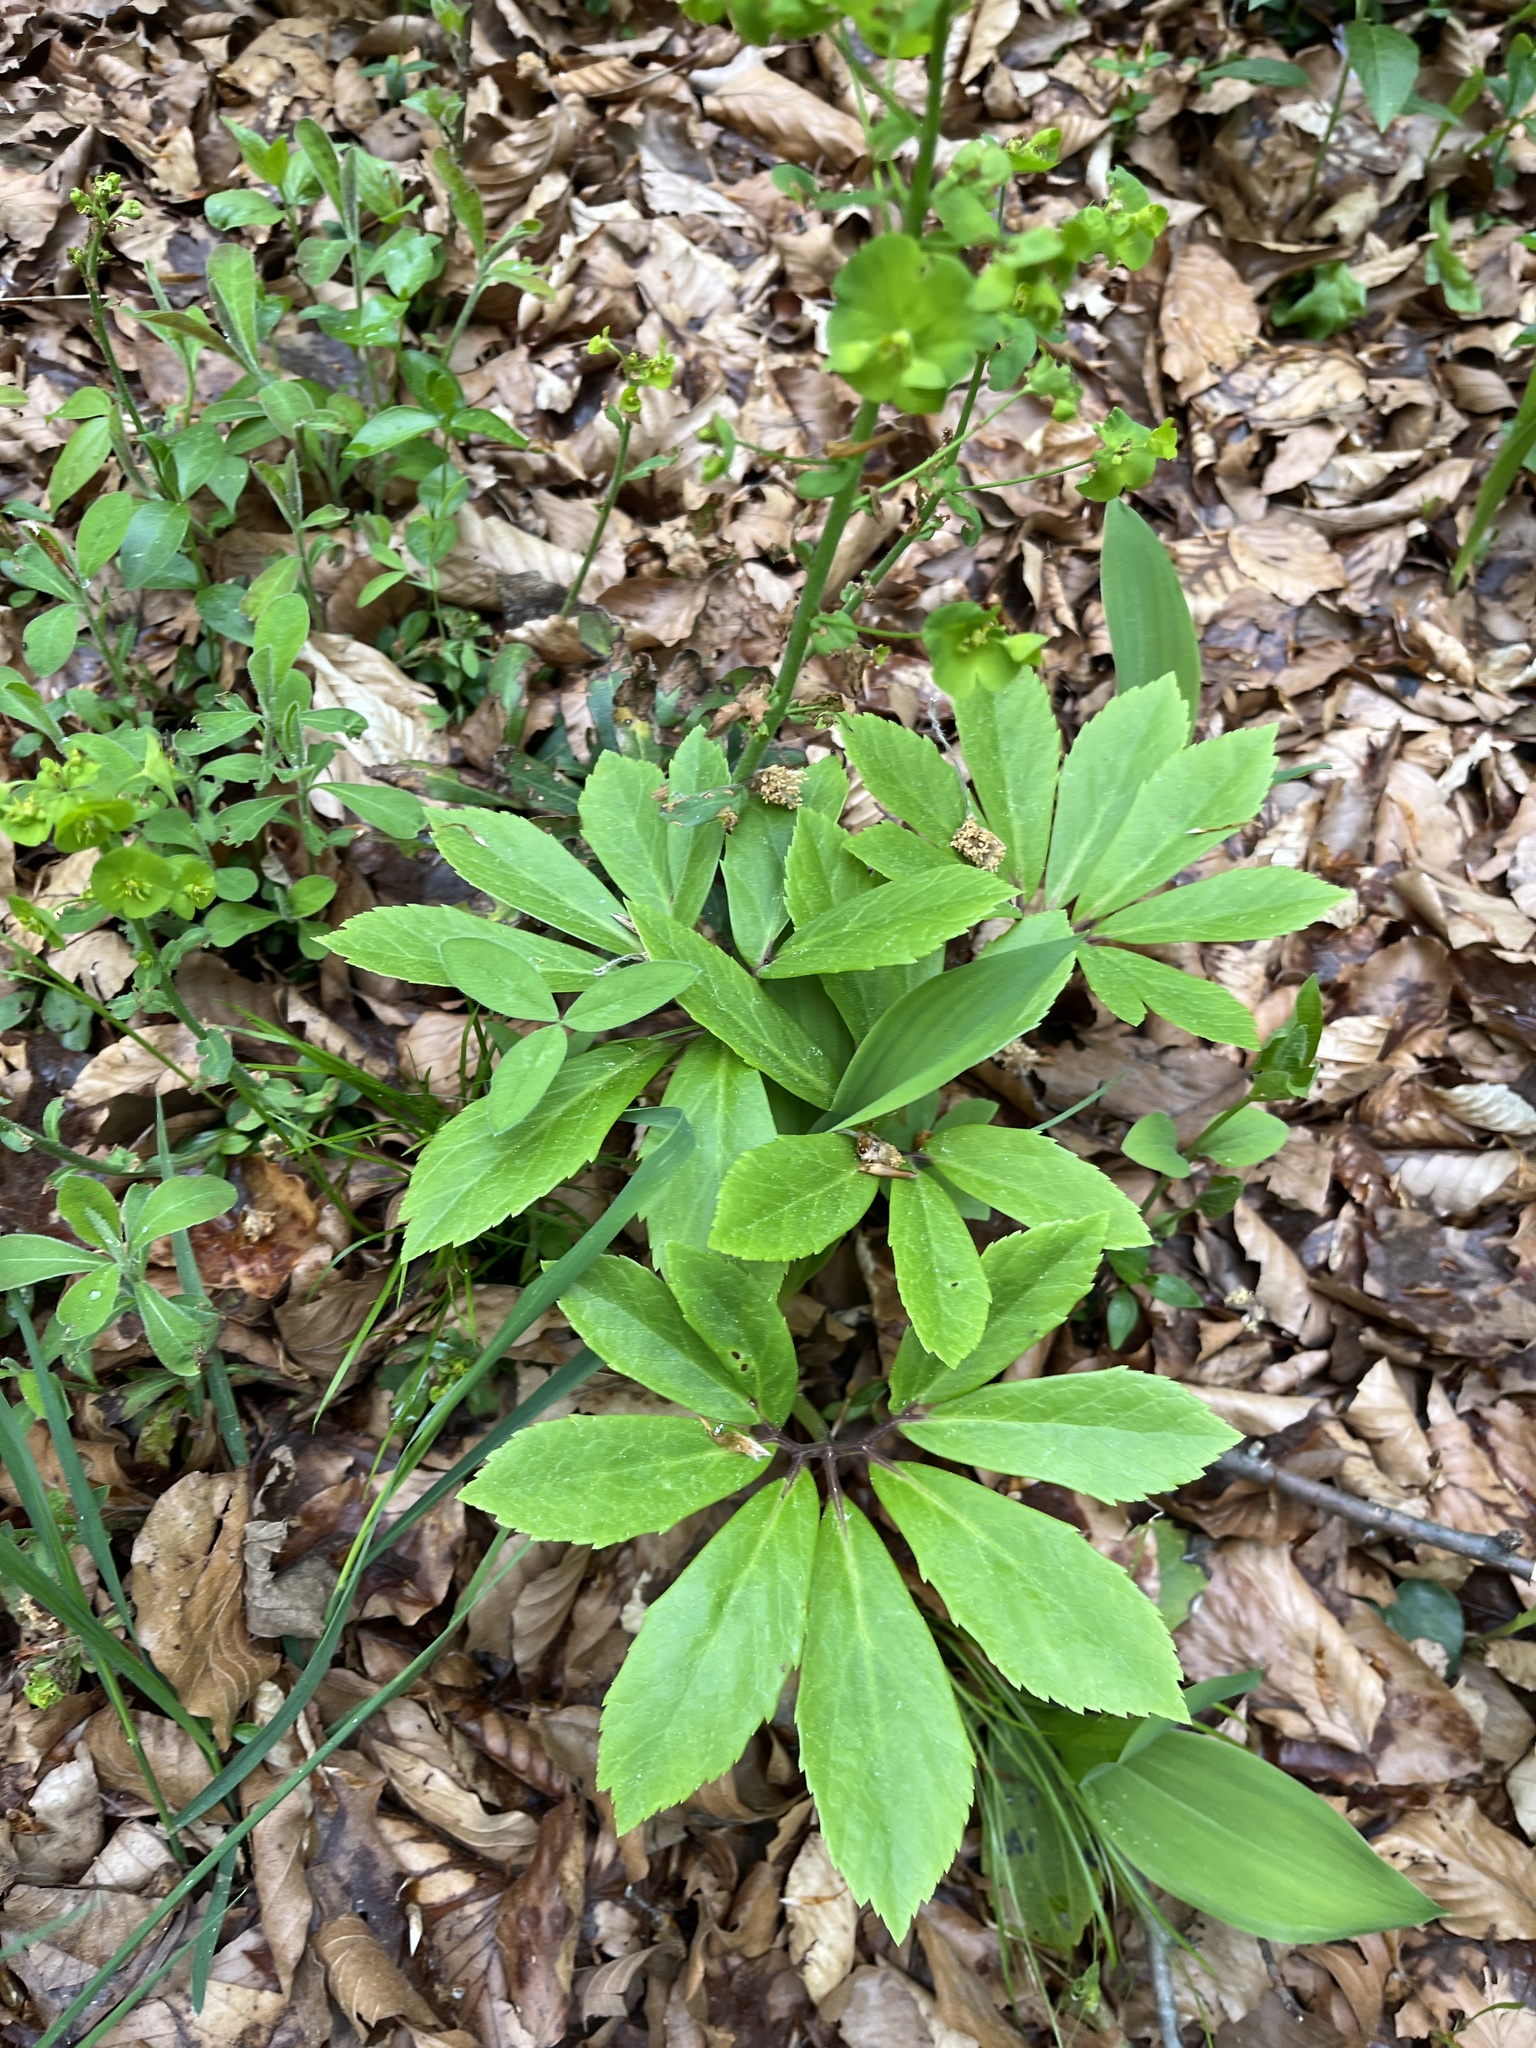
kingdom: Plantae
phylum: Tracheophyta
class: Magnoliopsida
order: Ranunculales
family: Ranunculaceae
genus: Helleborus
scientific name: Helleborus niger
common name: Black hellebore
